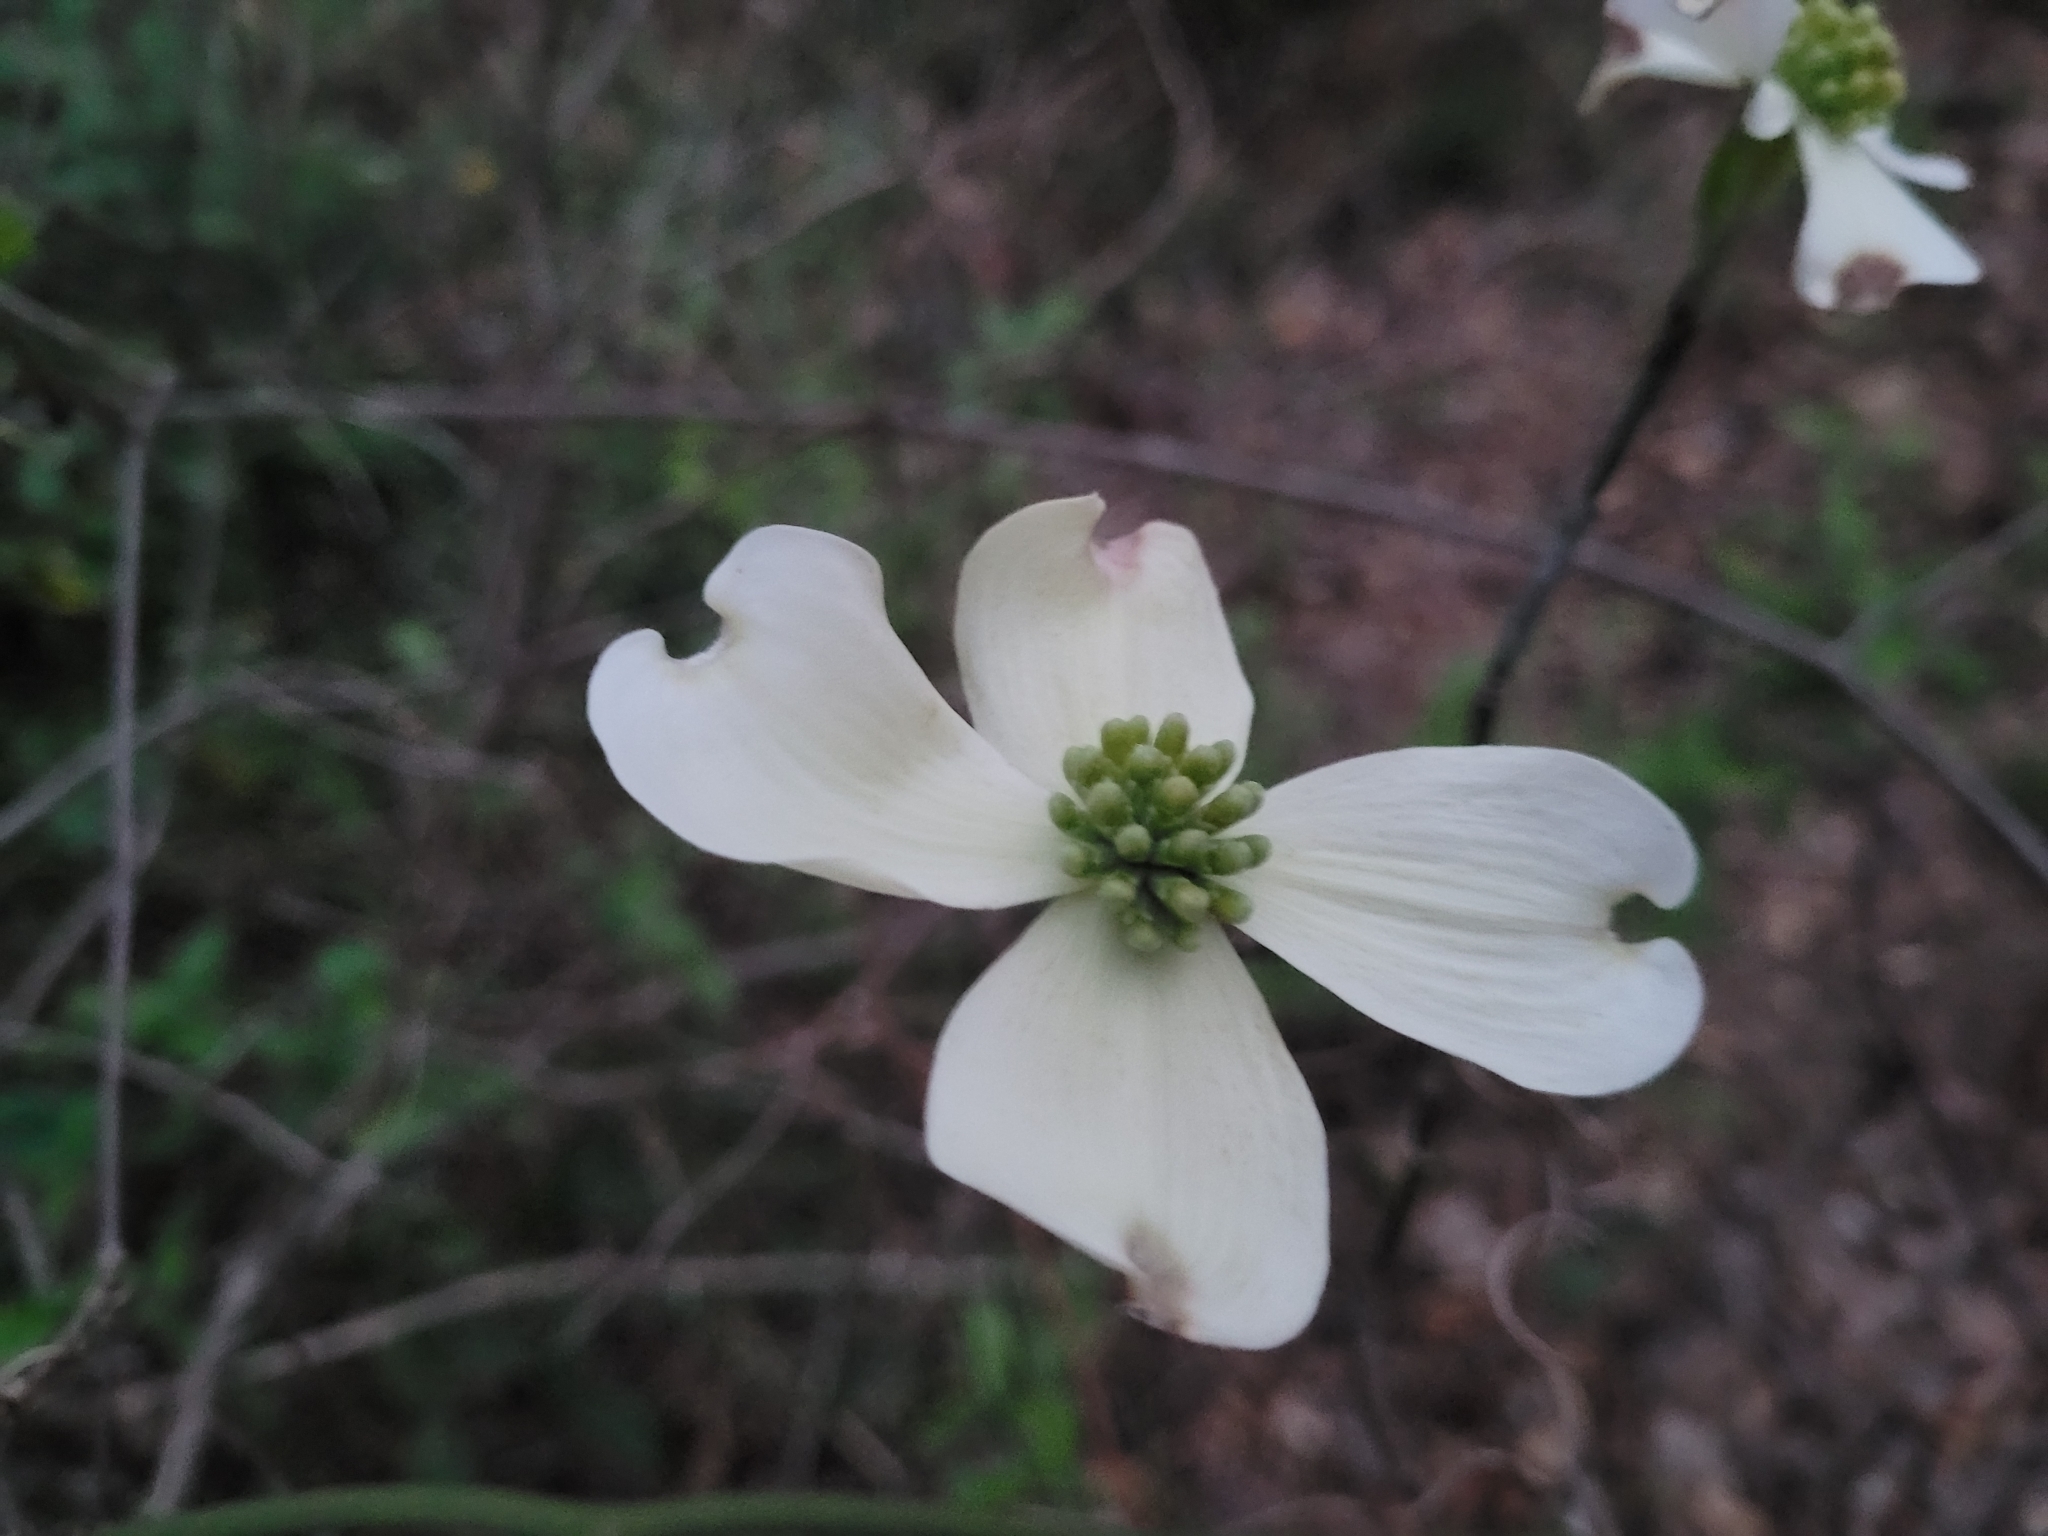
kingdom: Plantae
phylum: Tracheophyta
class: Magnoliopsida
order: Cornales
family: Cornaceae
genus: Cornus
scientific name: Cornus florida
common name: Flowering dogwood
